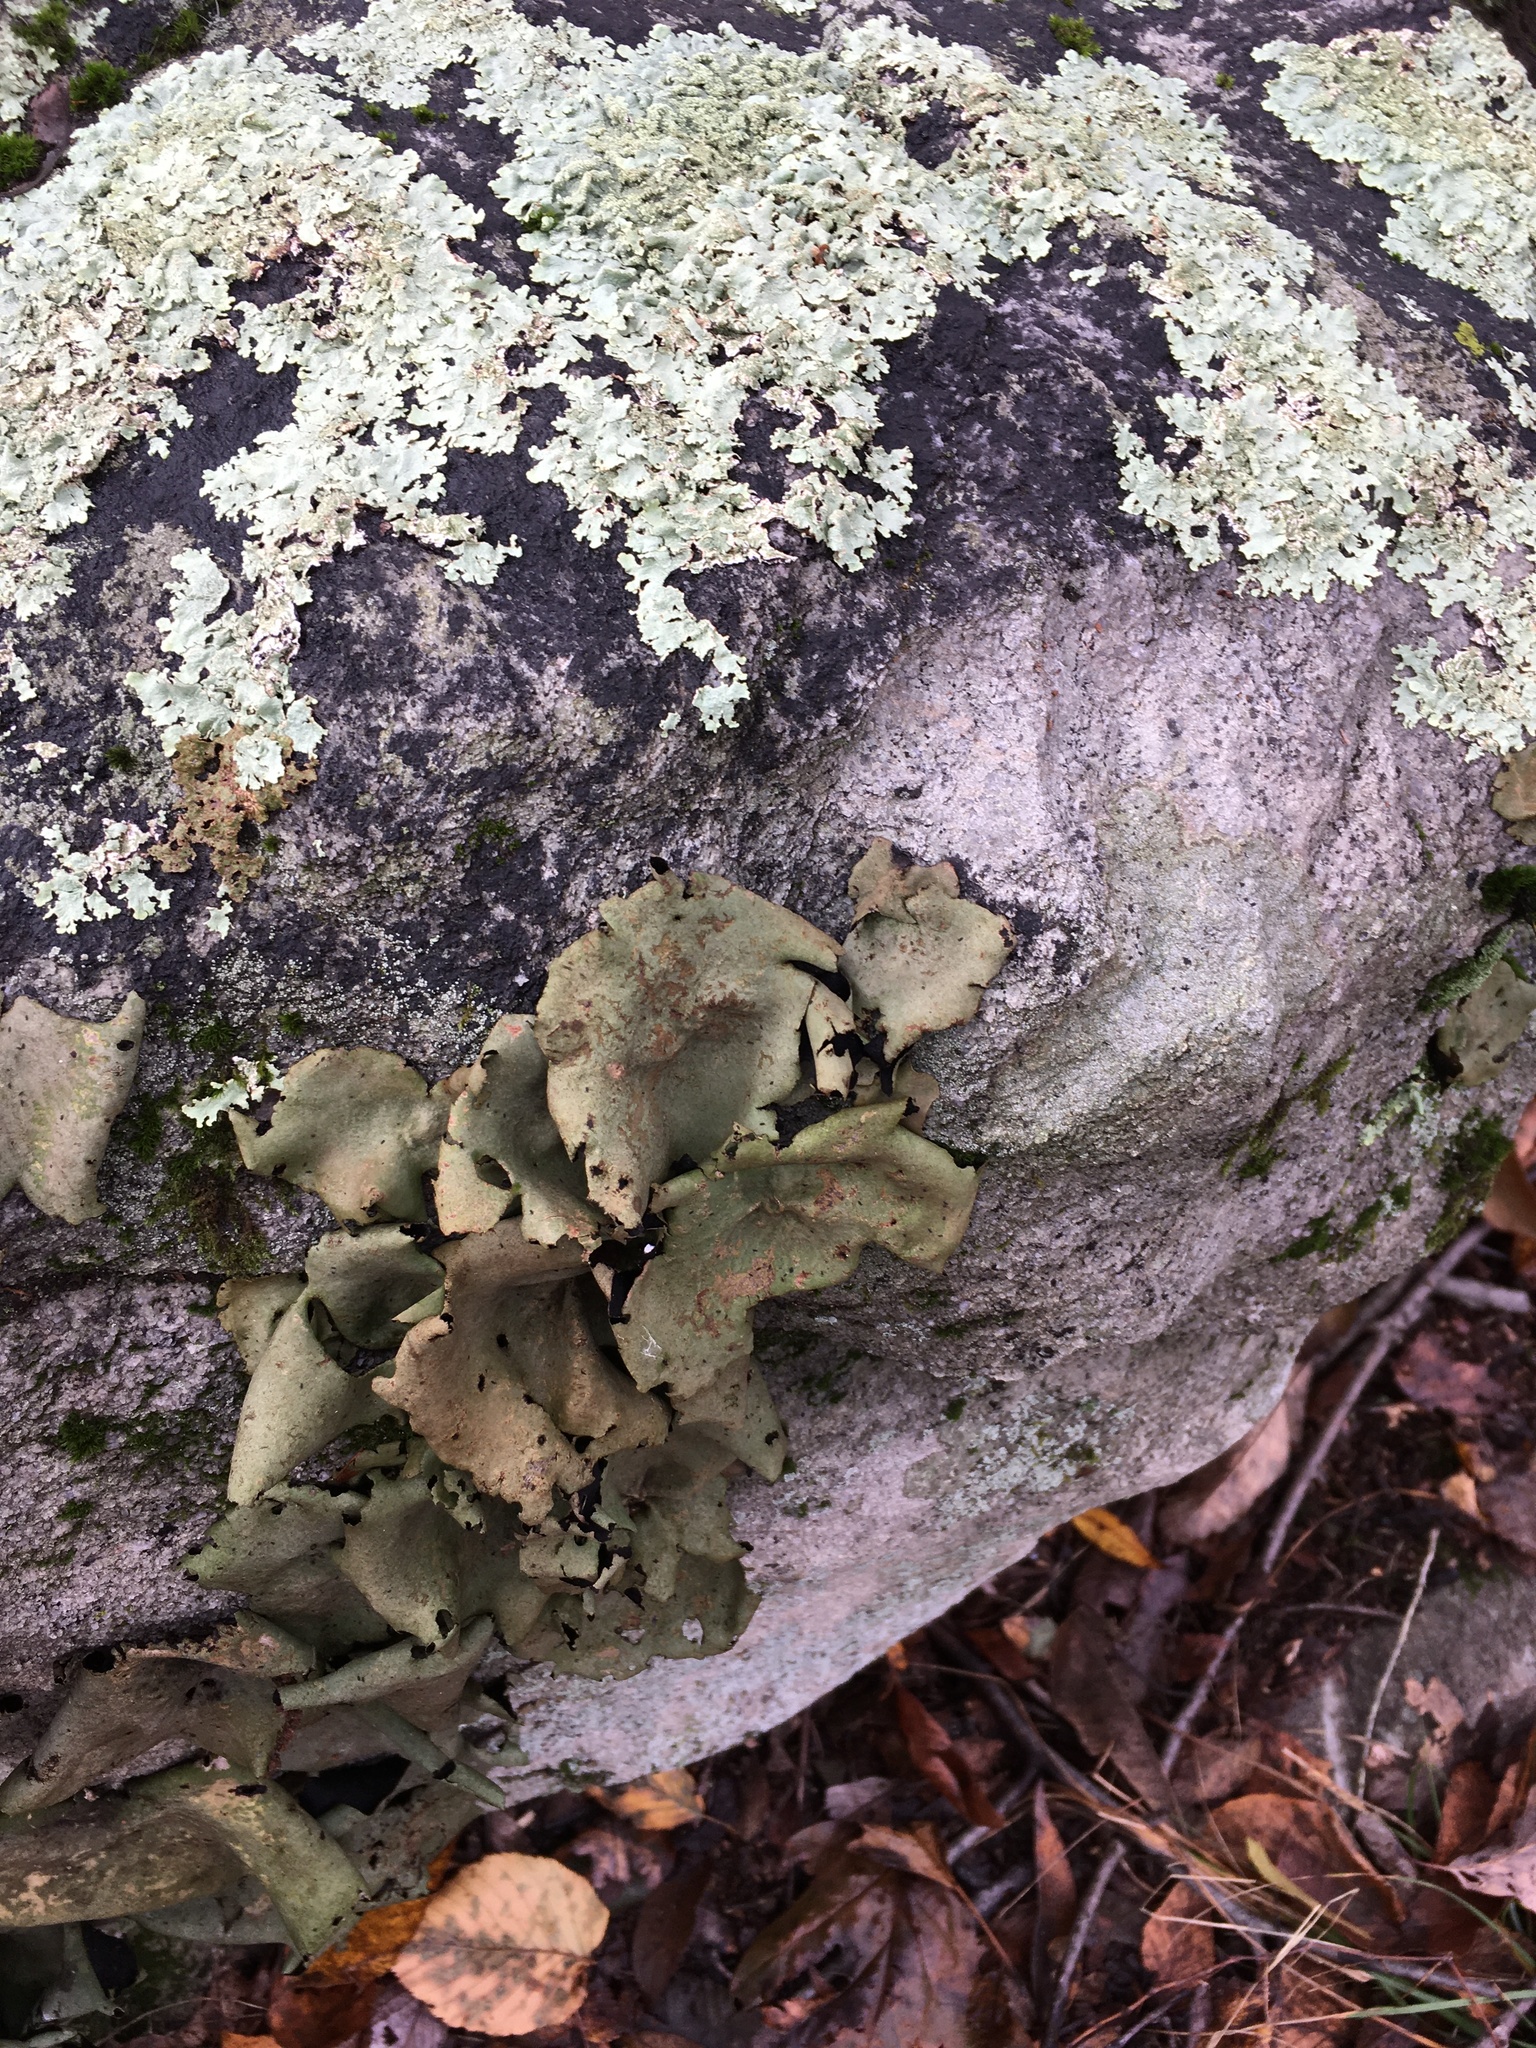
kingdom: Fungi
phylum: Ascomycota
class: Lecanoromycetes
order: Umbilicariales
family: Umbilicariaceae
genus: Umbilicaria
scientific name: Umbilicaria mammulata
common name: Smooth rock tripe
